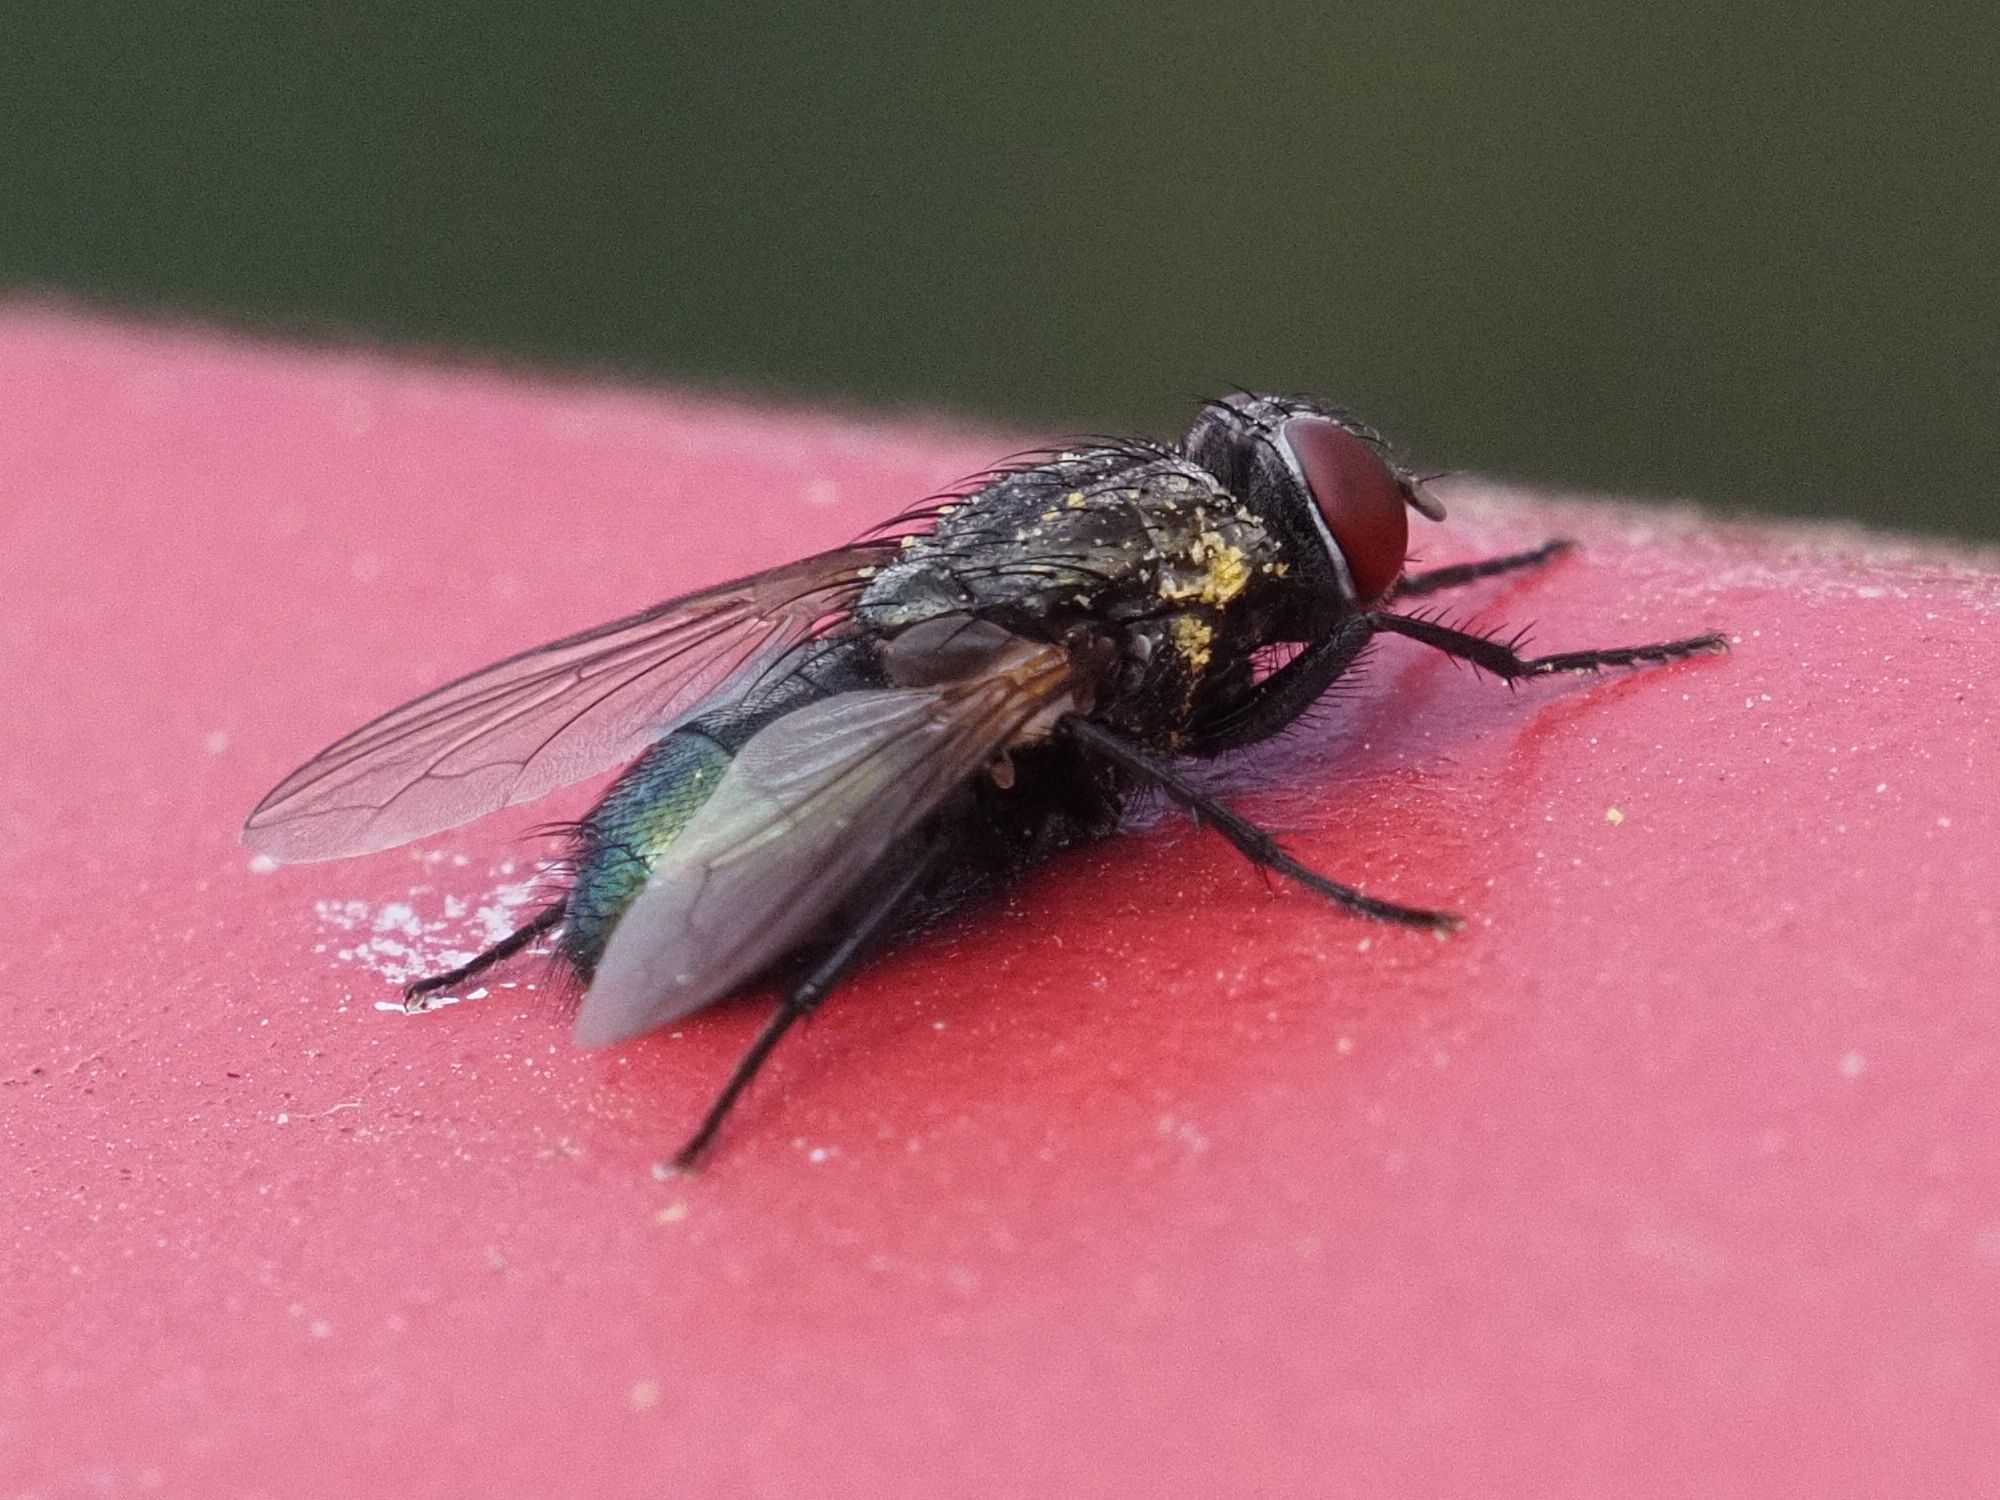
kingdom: Animalia
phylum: Arthropoda
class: Insecta
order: Diptera
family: Calliphoridae
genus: Protocalliphora
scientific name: Protocalliphora azurea
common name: Bird blowfly
